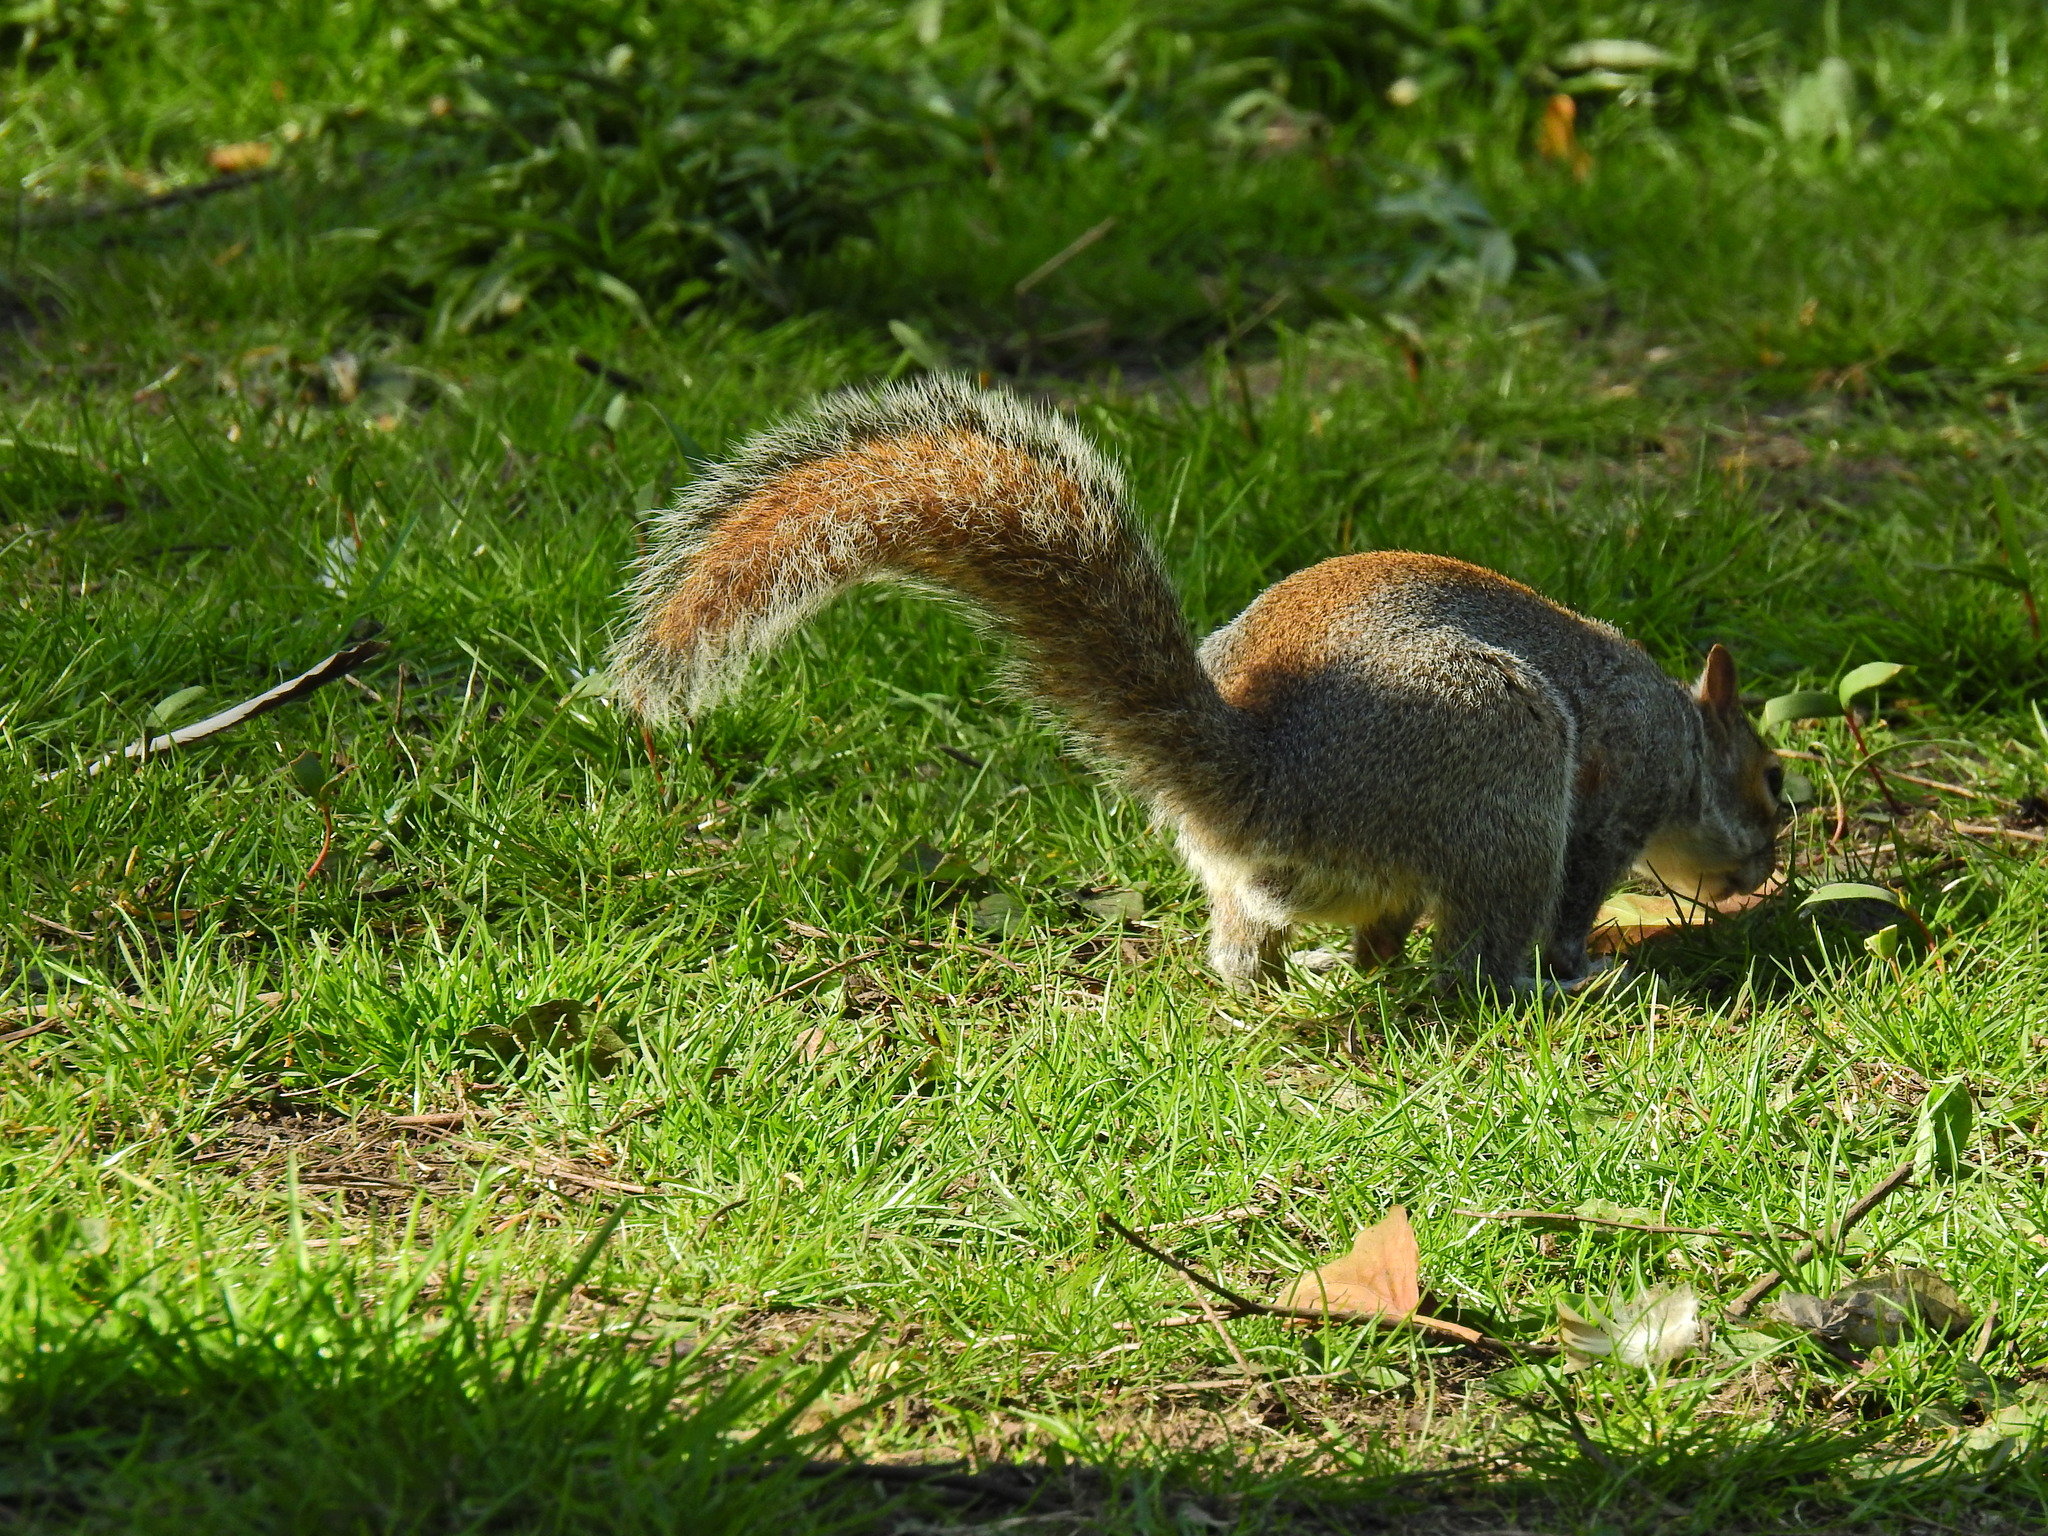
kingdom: Animalia
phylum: Chordata
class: Mammalia
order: Rodentia
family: Sciuridae
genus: Sciurus
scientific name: Sciurus carolinensis
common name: Eastern gray squirrel
